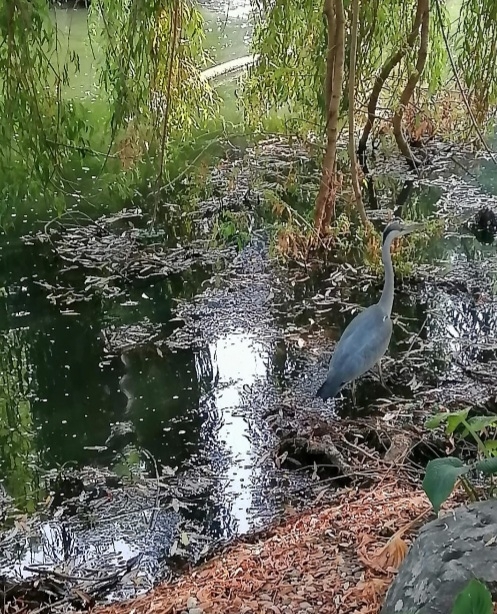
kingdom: Animalia
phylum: Chordata
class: Aves
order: Pelecaniformes
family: Ardeidae
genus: Ardea
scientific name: Ardea cinerea
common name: Grey heron
